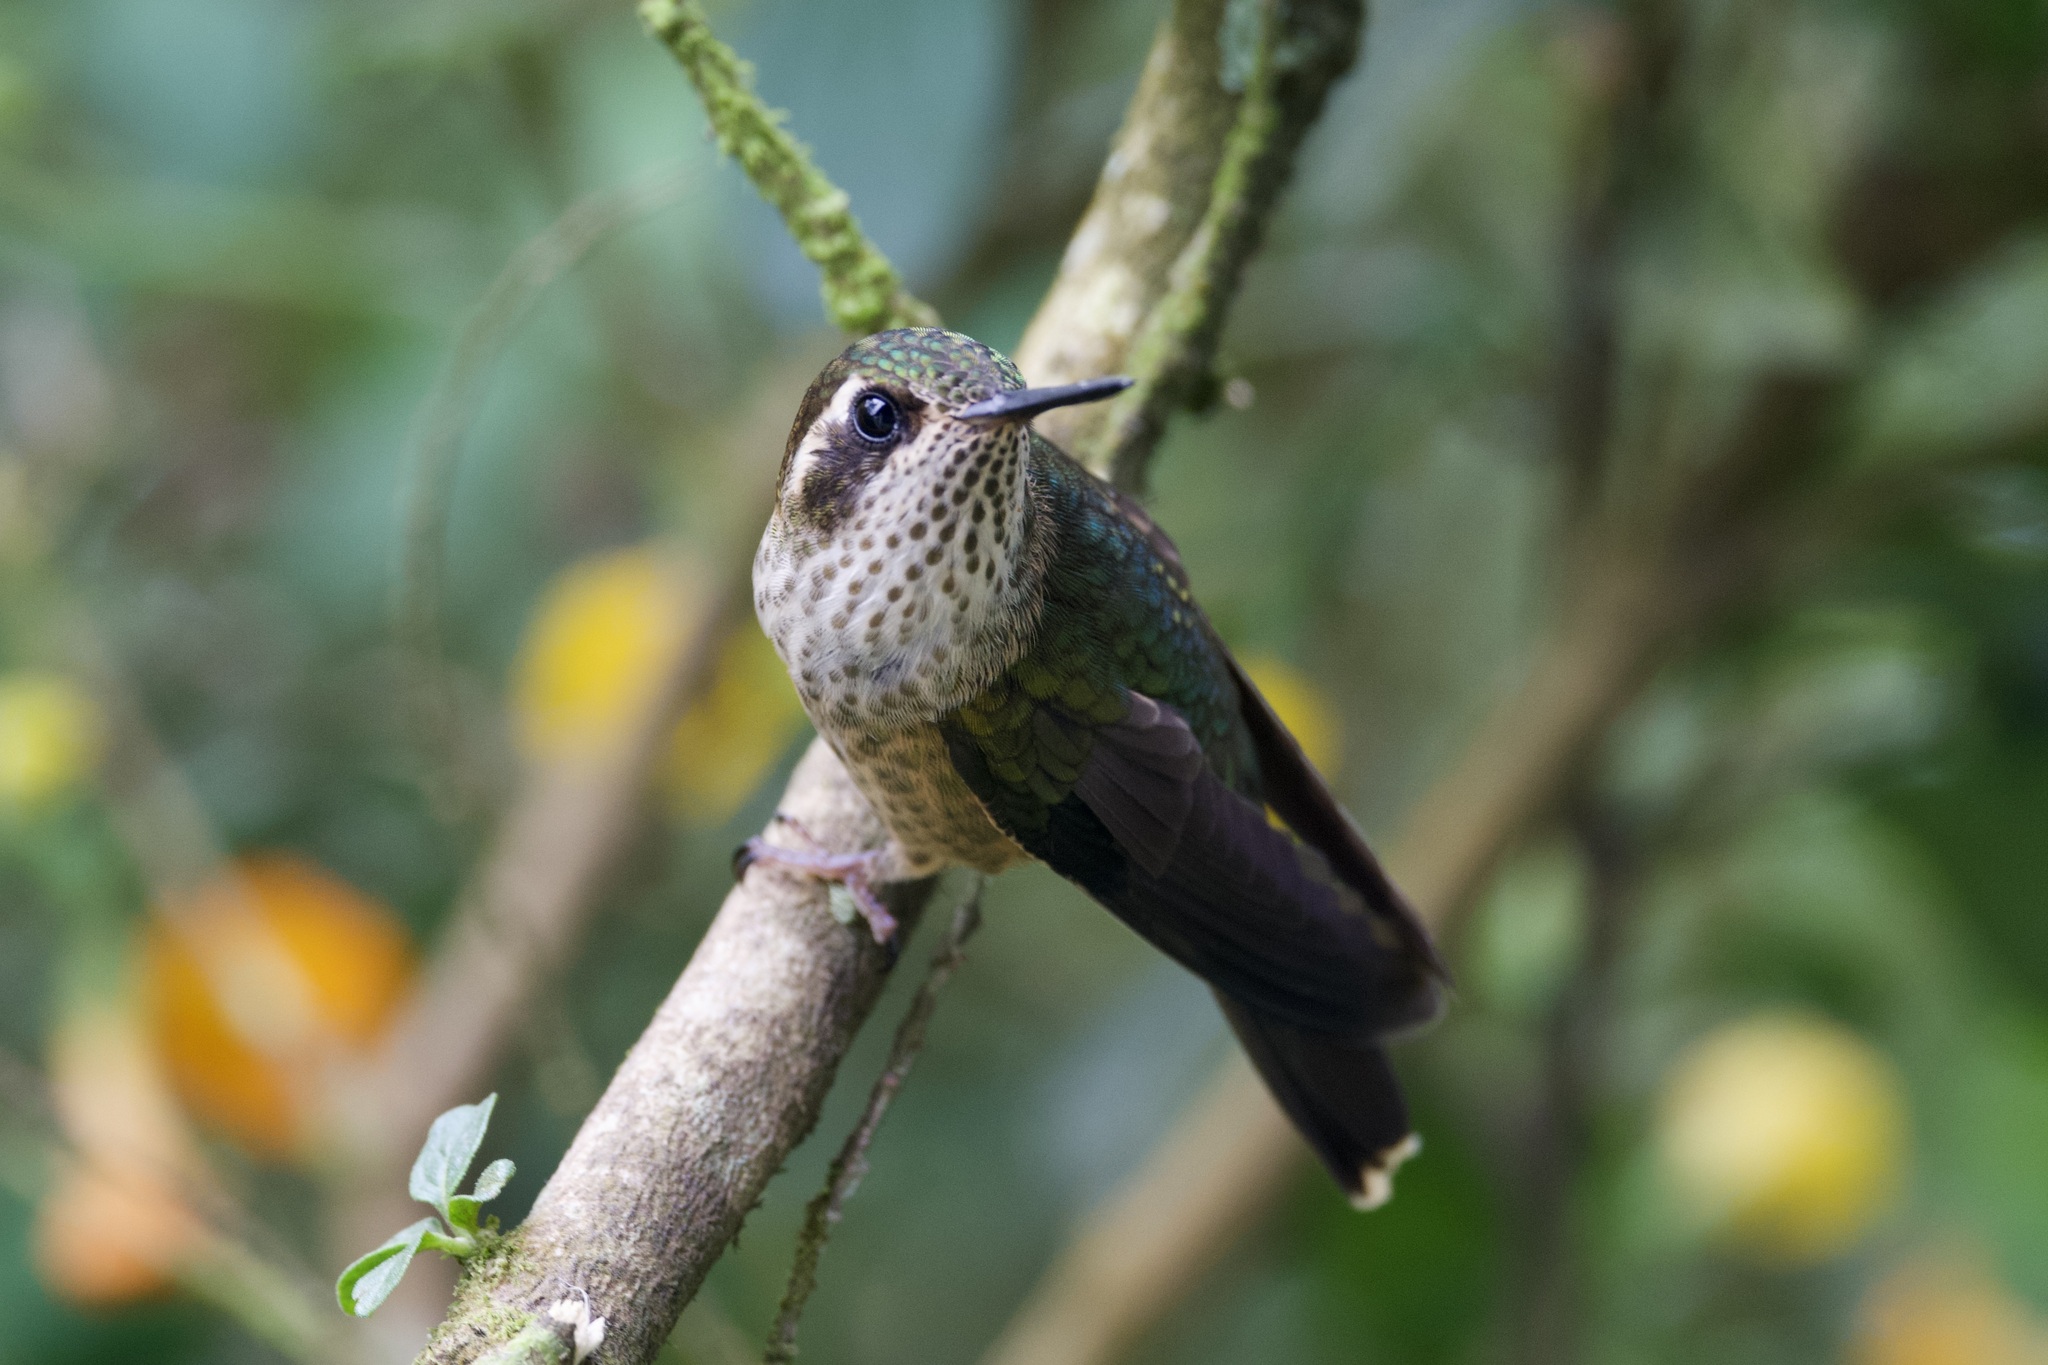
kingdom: Animalia
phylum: Chordata
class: Aves
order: Apodiformes
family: Trochilidae
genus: Adelomyia
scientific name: Adelomyia melanogenys
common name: Speckled hummingbird
